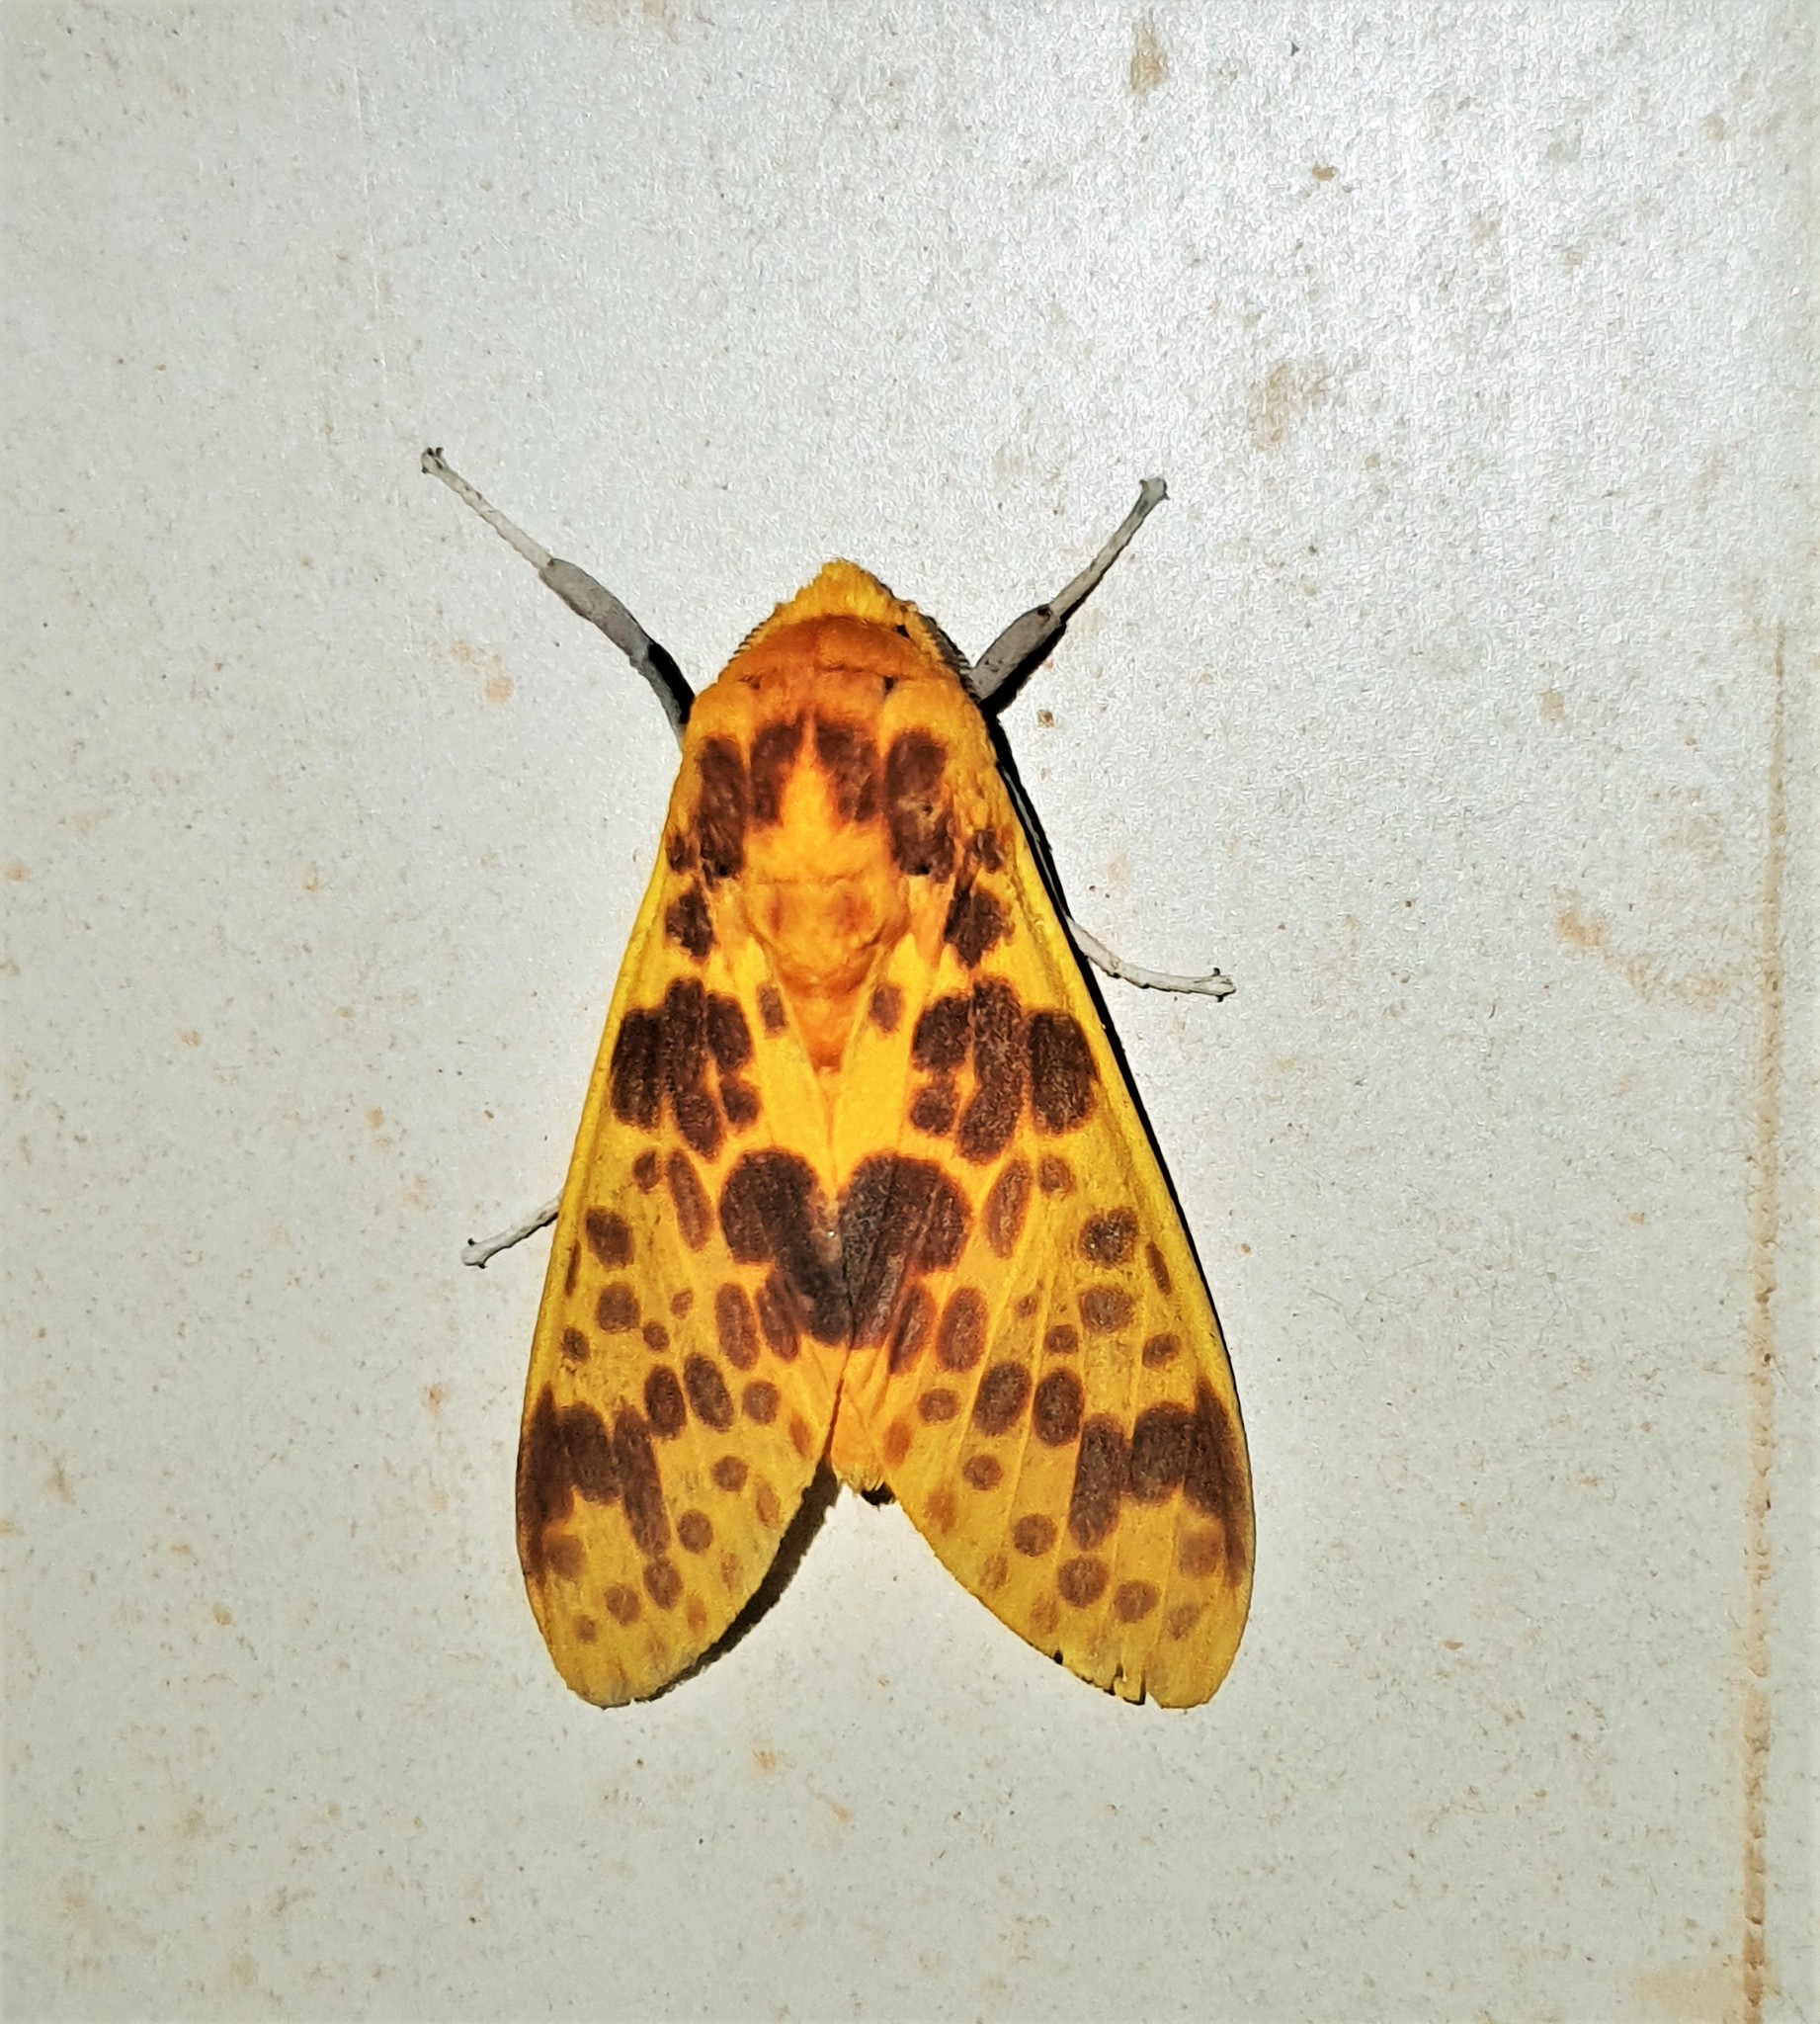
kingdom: Animalia
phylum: Arthropoda
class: Insecta
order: Lepidoptera
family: Erebidae
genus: Symphlebia
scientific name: Symphlebia neja
